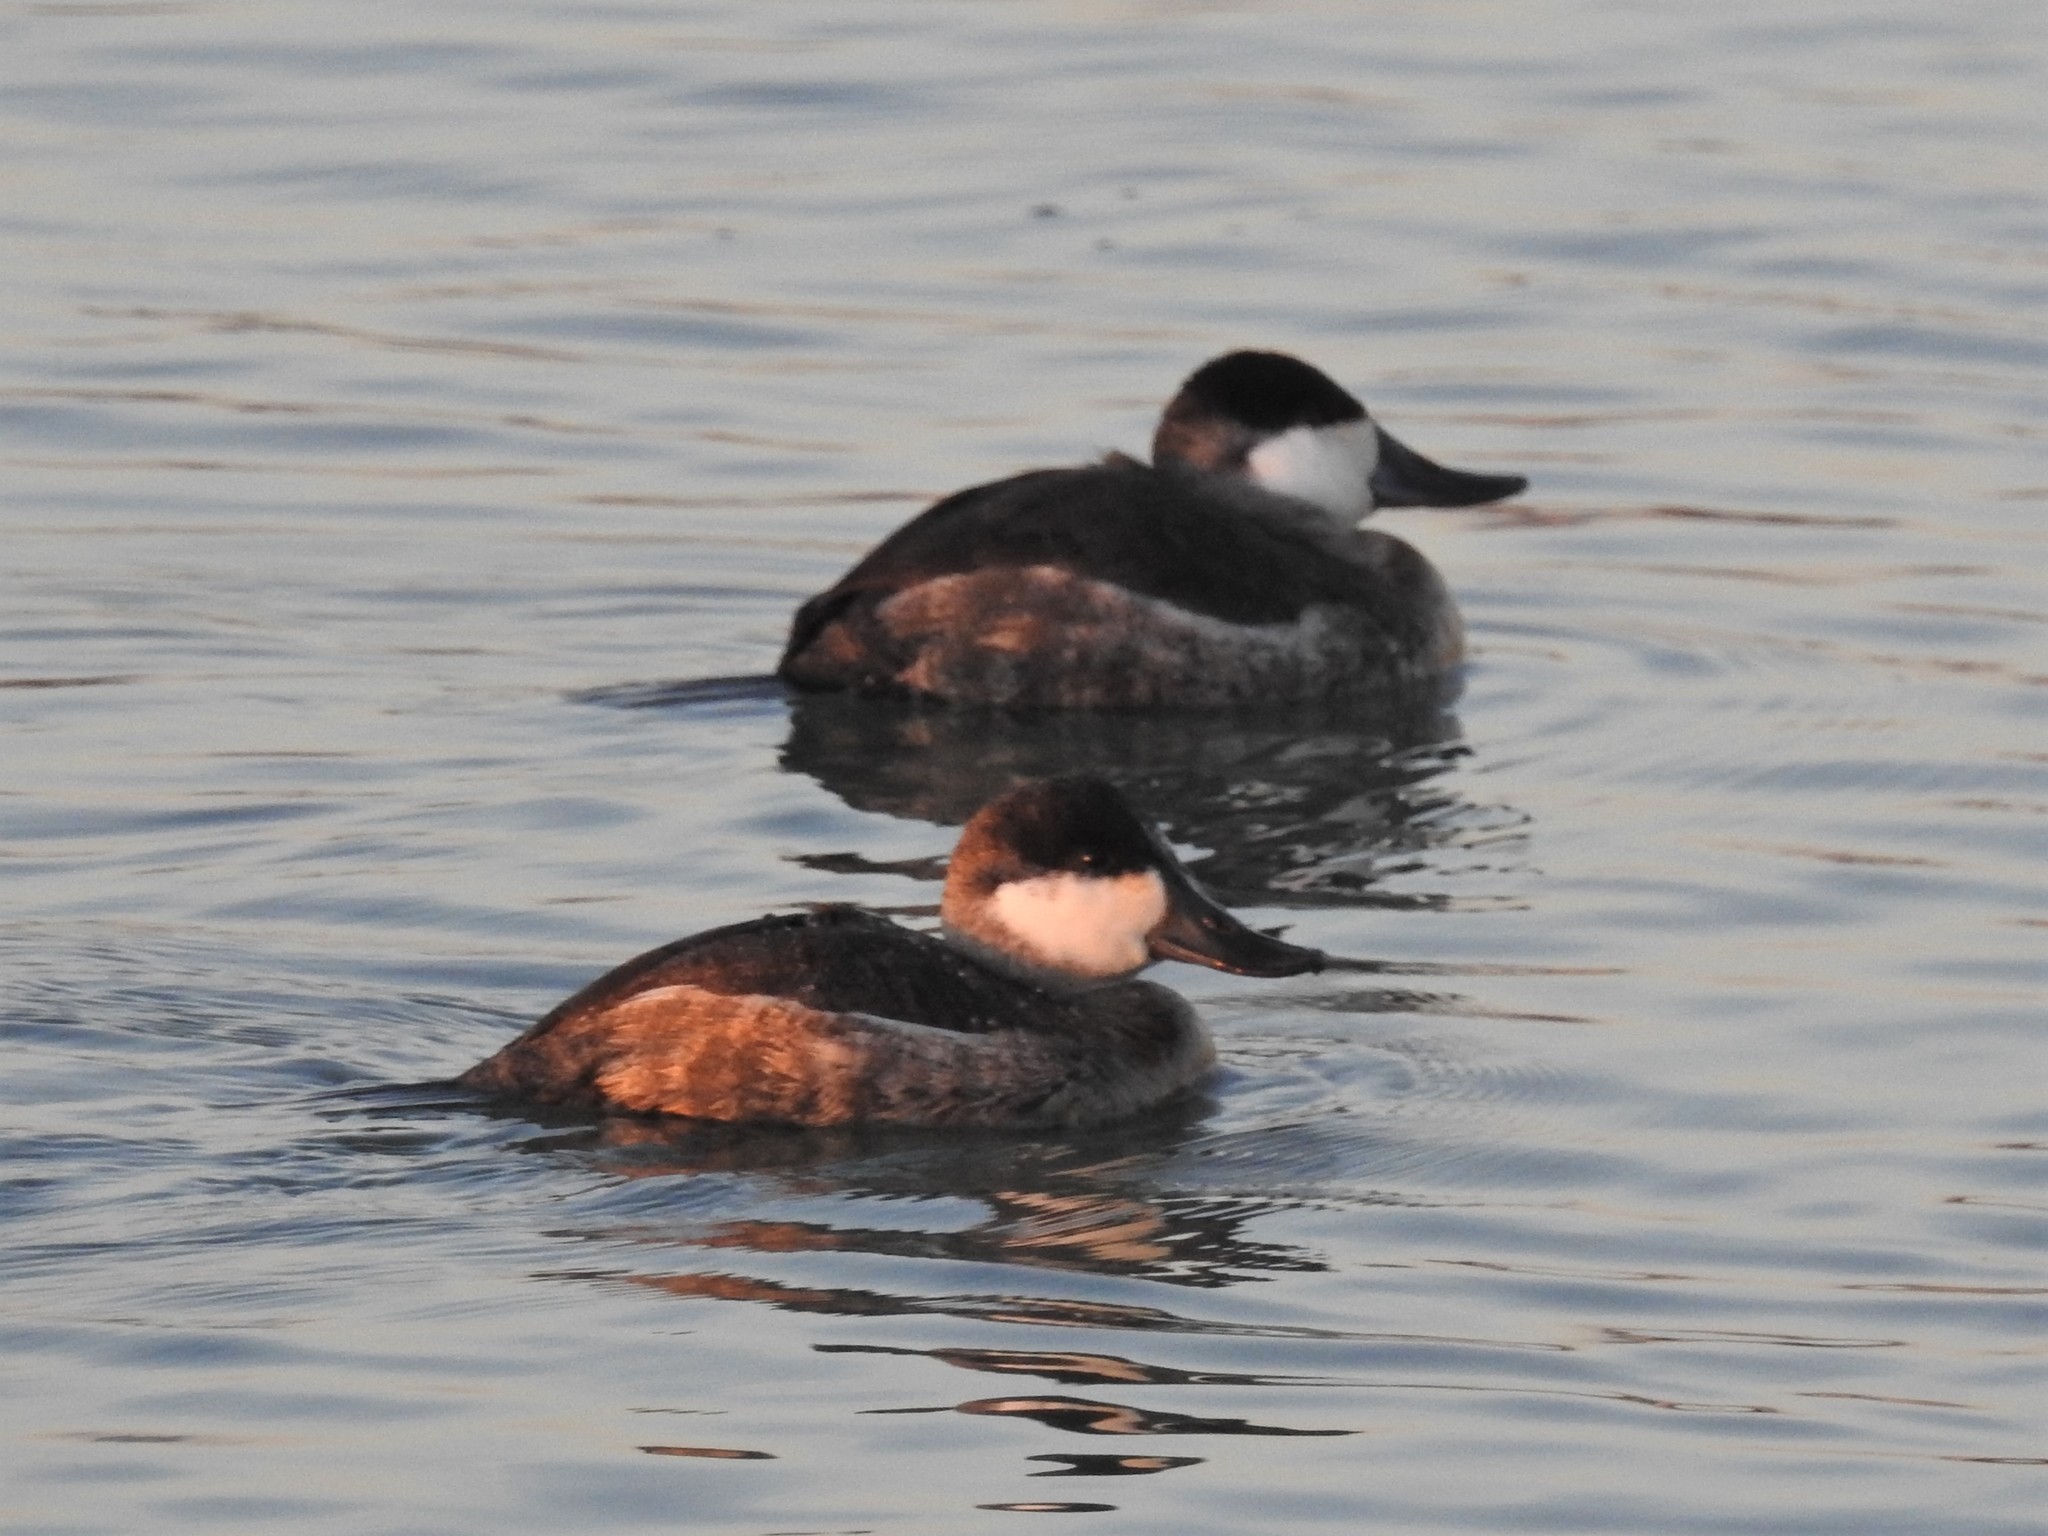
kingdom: Animalia
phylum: Chordata
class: Aves
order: Anseriformes
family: Anatidae
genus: Oxyura
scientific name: Oxyura jamaicensis
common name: Ruddy duck
